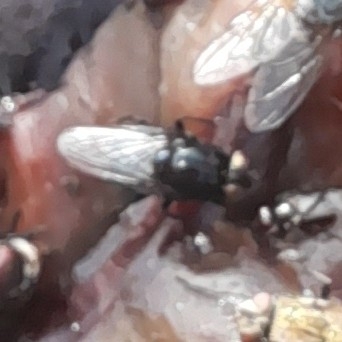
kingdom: Animalia
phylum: Arthropoda
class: Insecta
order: Diptera
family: Muscidae
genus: Australophyra
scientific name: Australophyra rostrata
